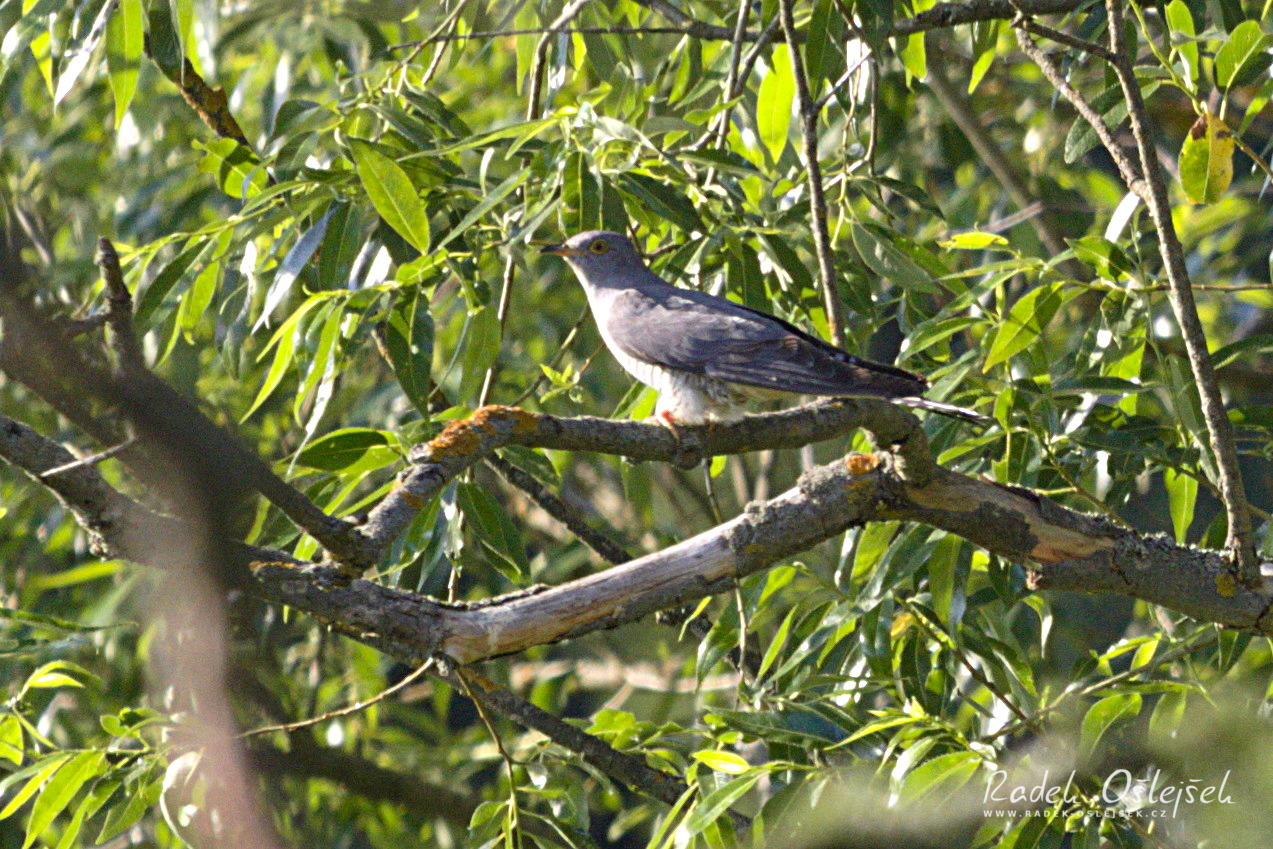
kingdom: Animalia
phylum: Chordata
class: Aves
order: Cuculiformes
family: Cuculidae
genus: Cuculus
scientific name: Cuculus canorus
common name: Common cuckoo
